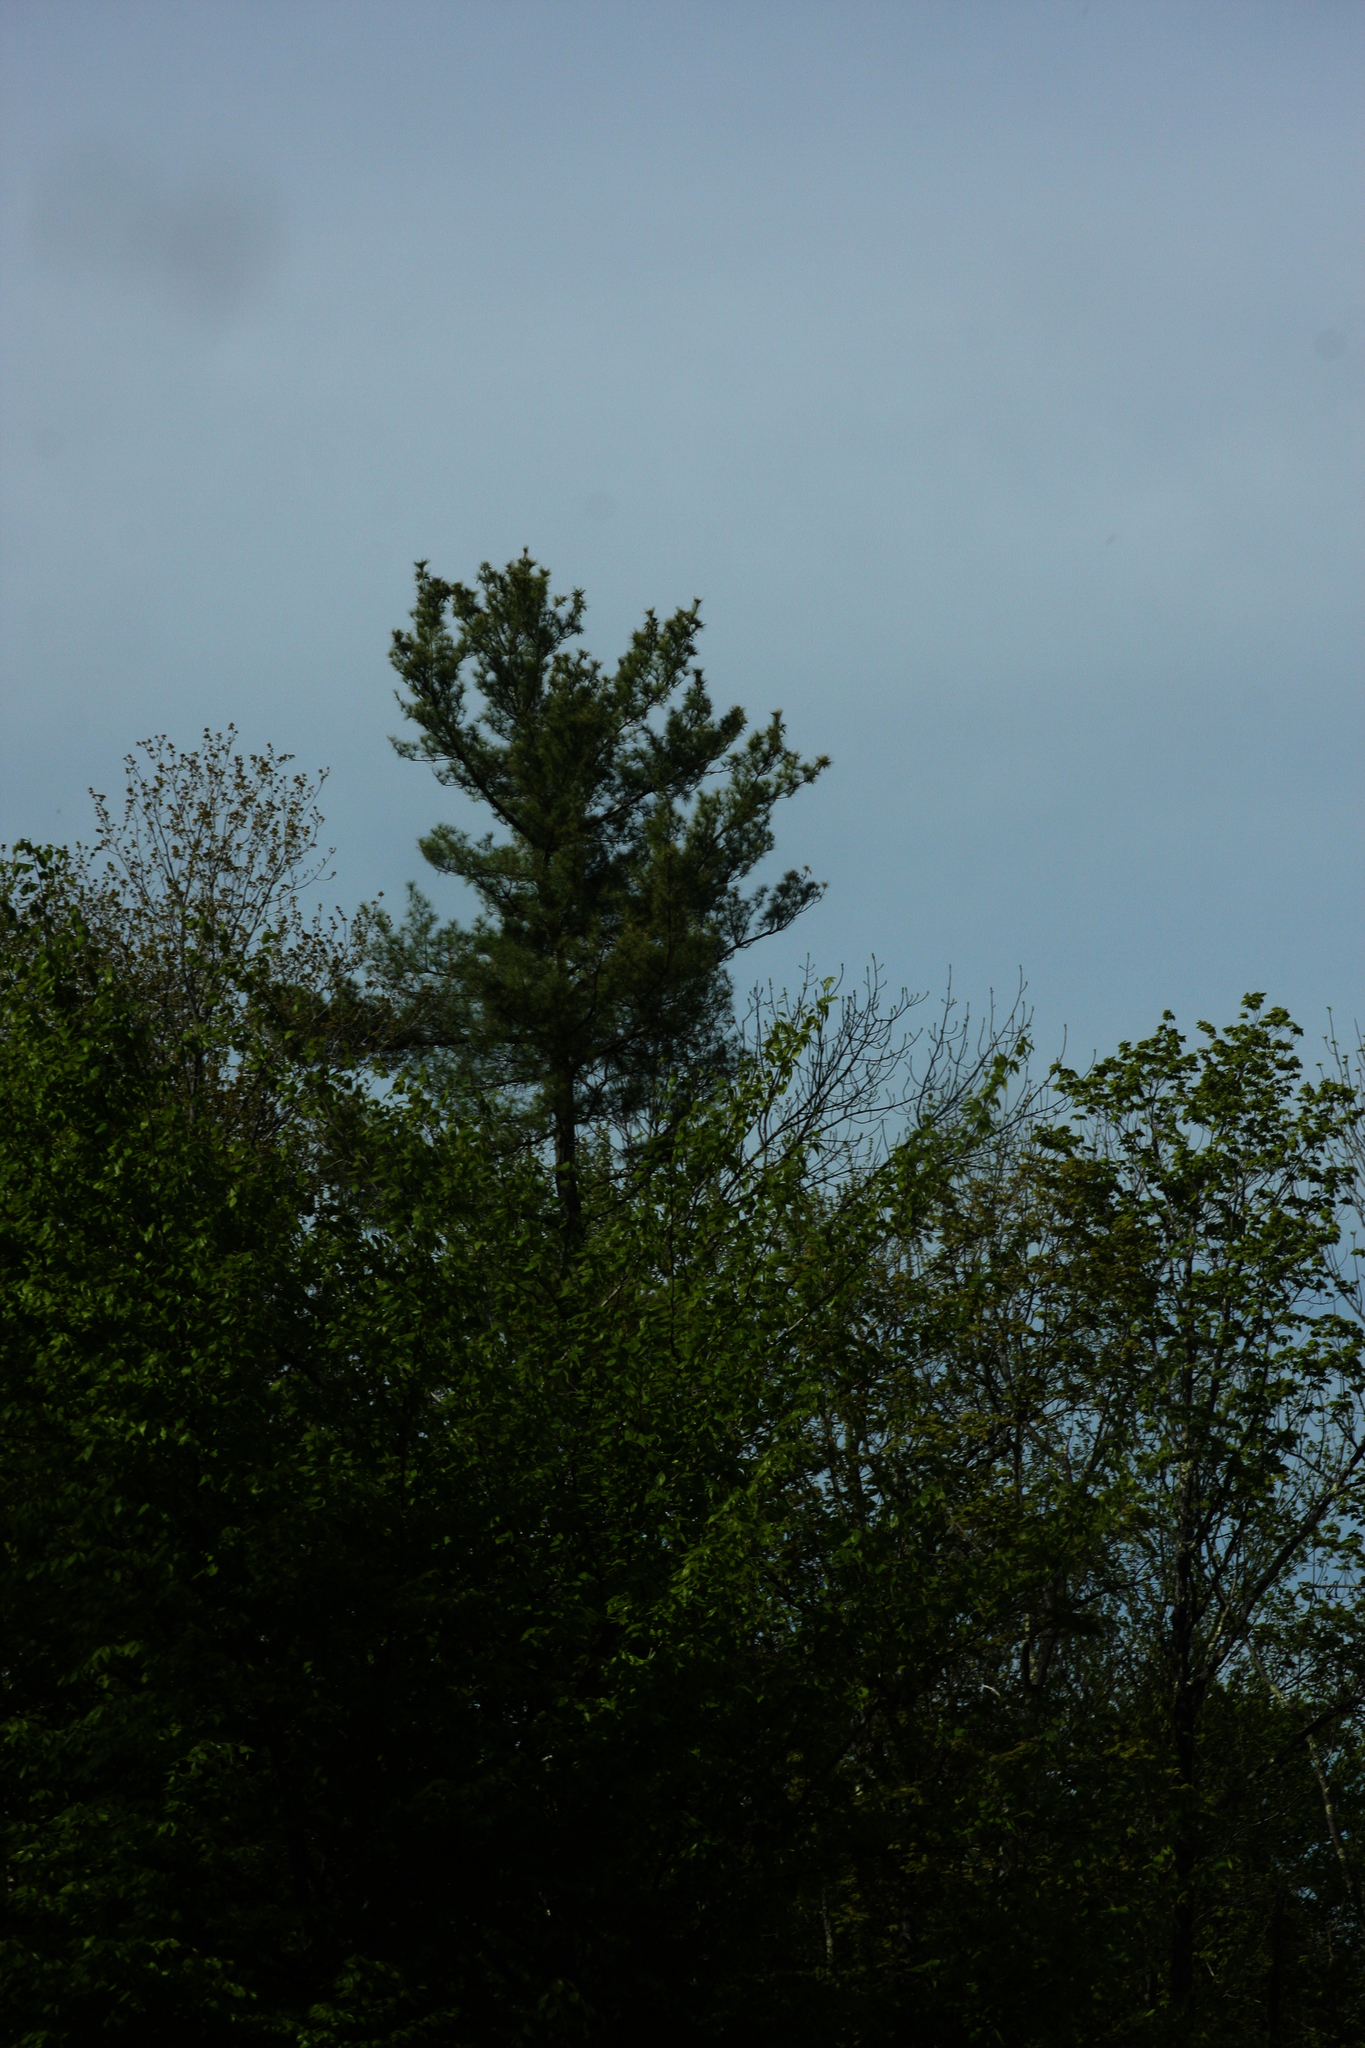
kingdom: Plantae
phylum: Tracheophyta
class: Pinopsida
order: Pinales
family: Pinaceae
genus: Pinus
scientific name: Pinus strobus
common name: Weymouth pine
